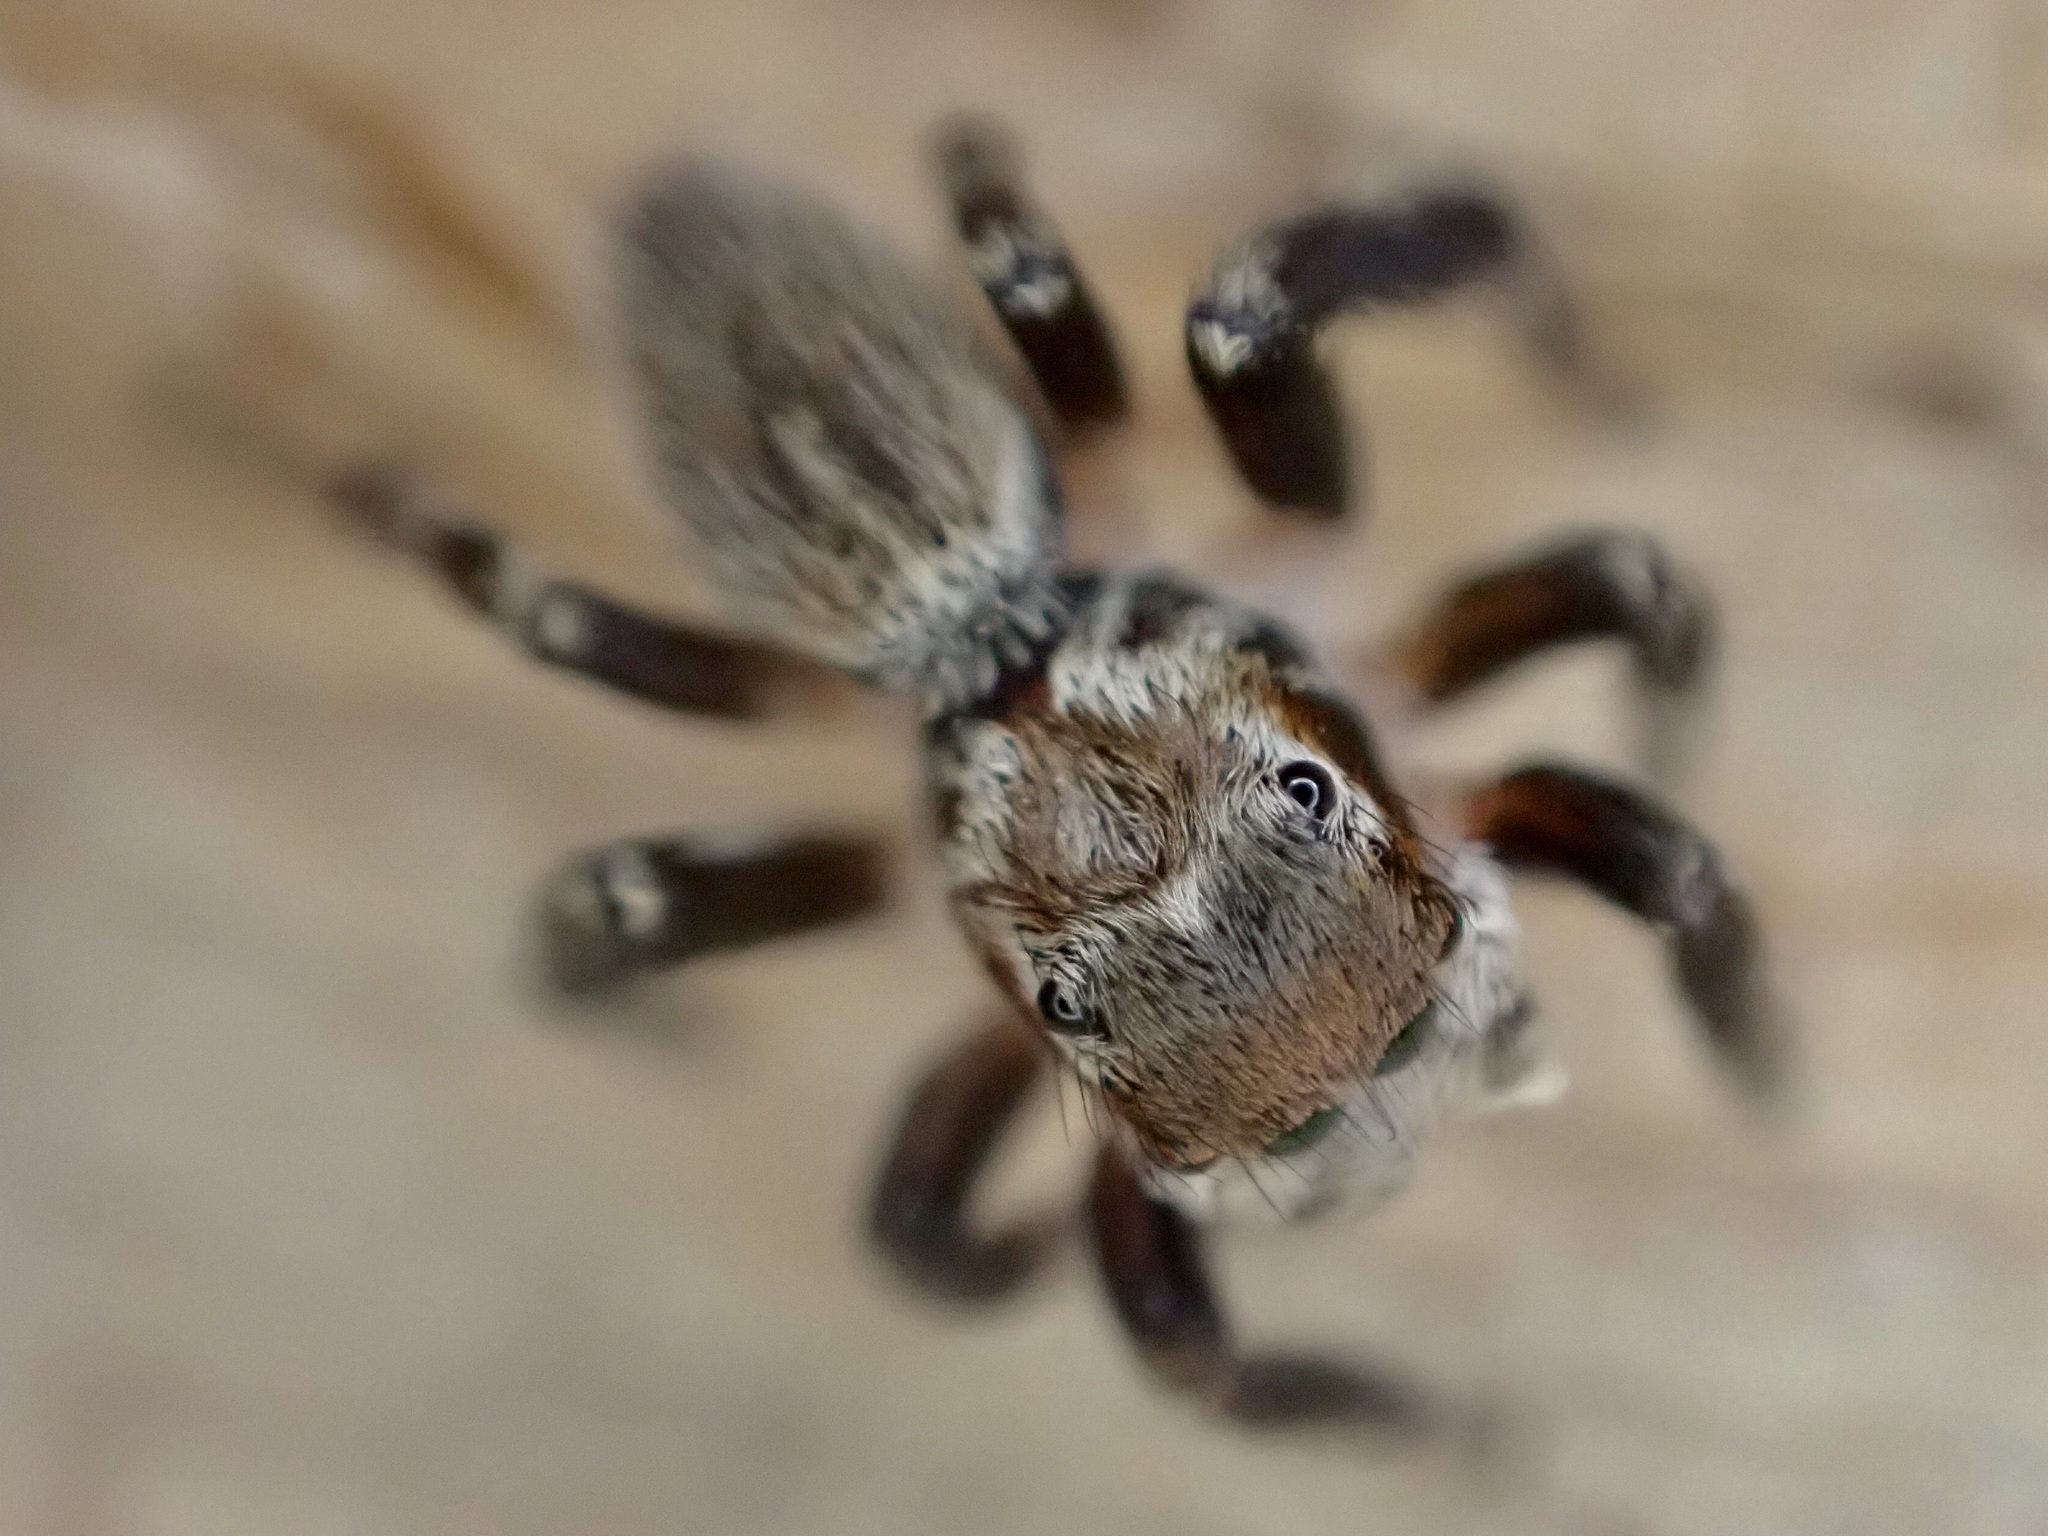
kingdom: Animalia
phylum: Arthropoda
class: Arachnida
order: Araneae
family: Salticidae
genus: Maratus
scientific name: Maratus griseus
